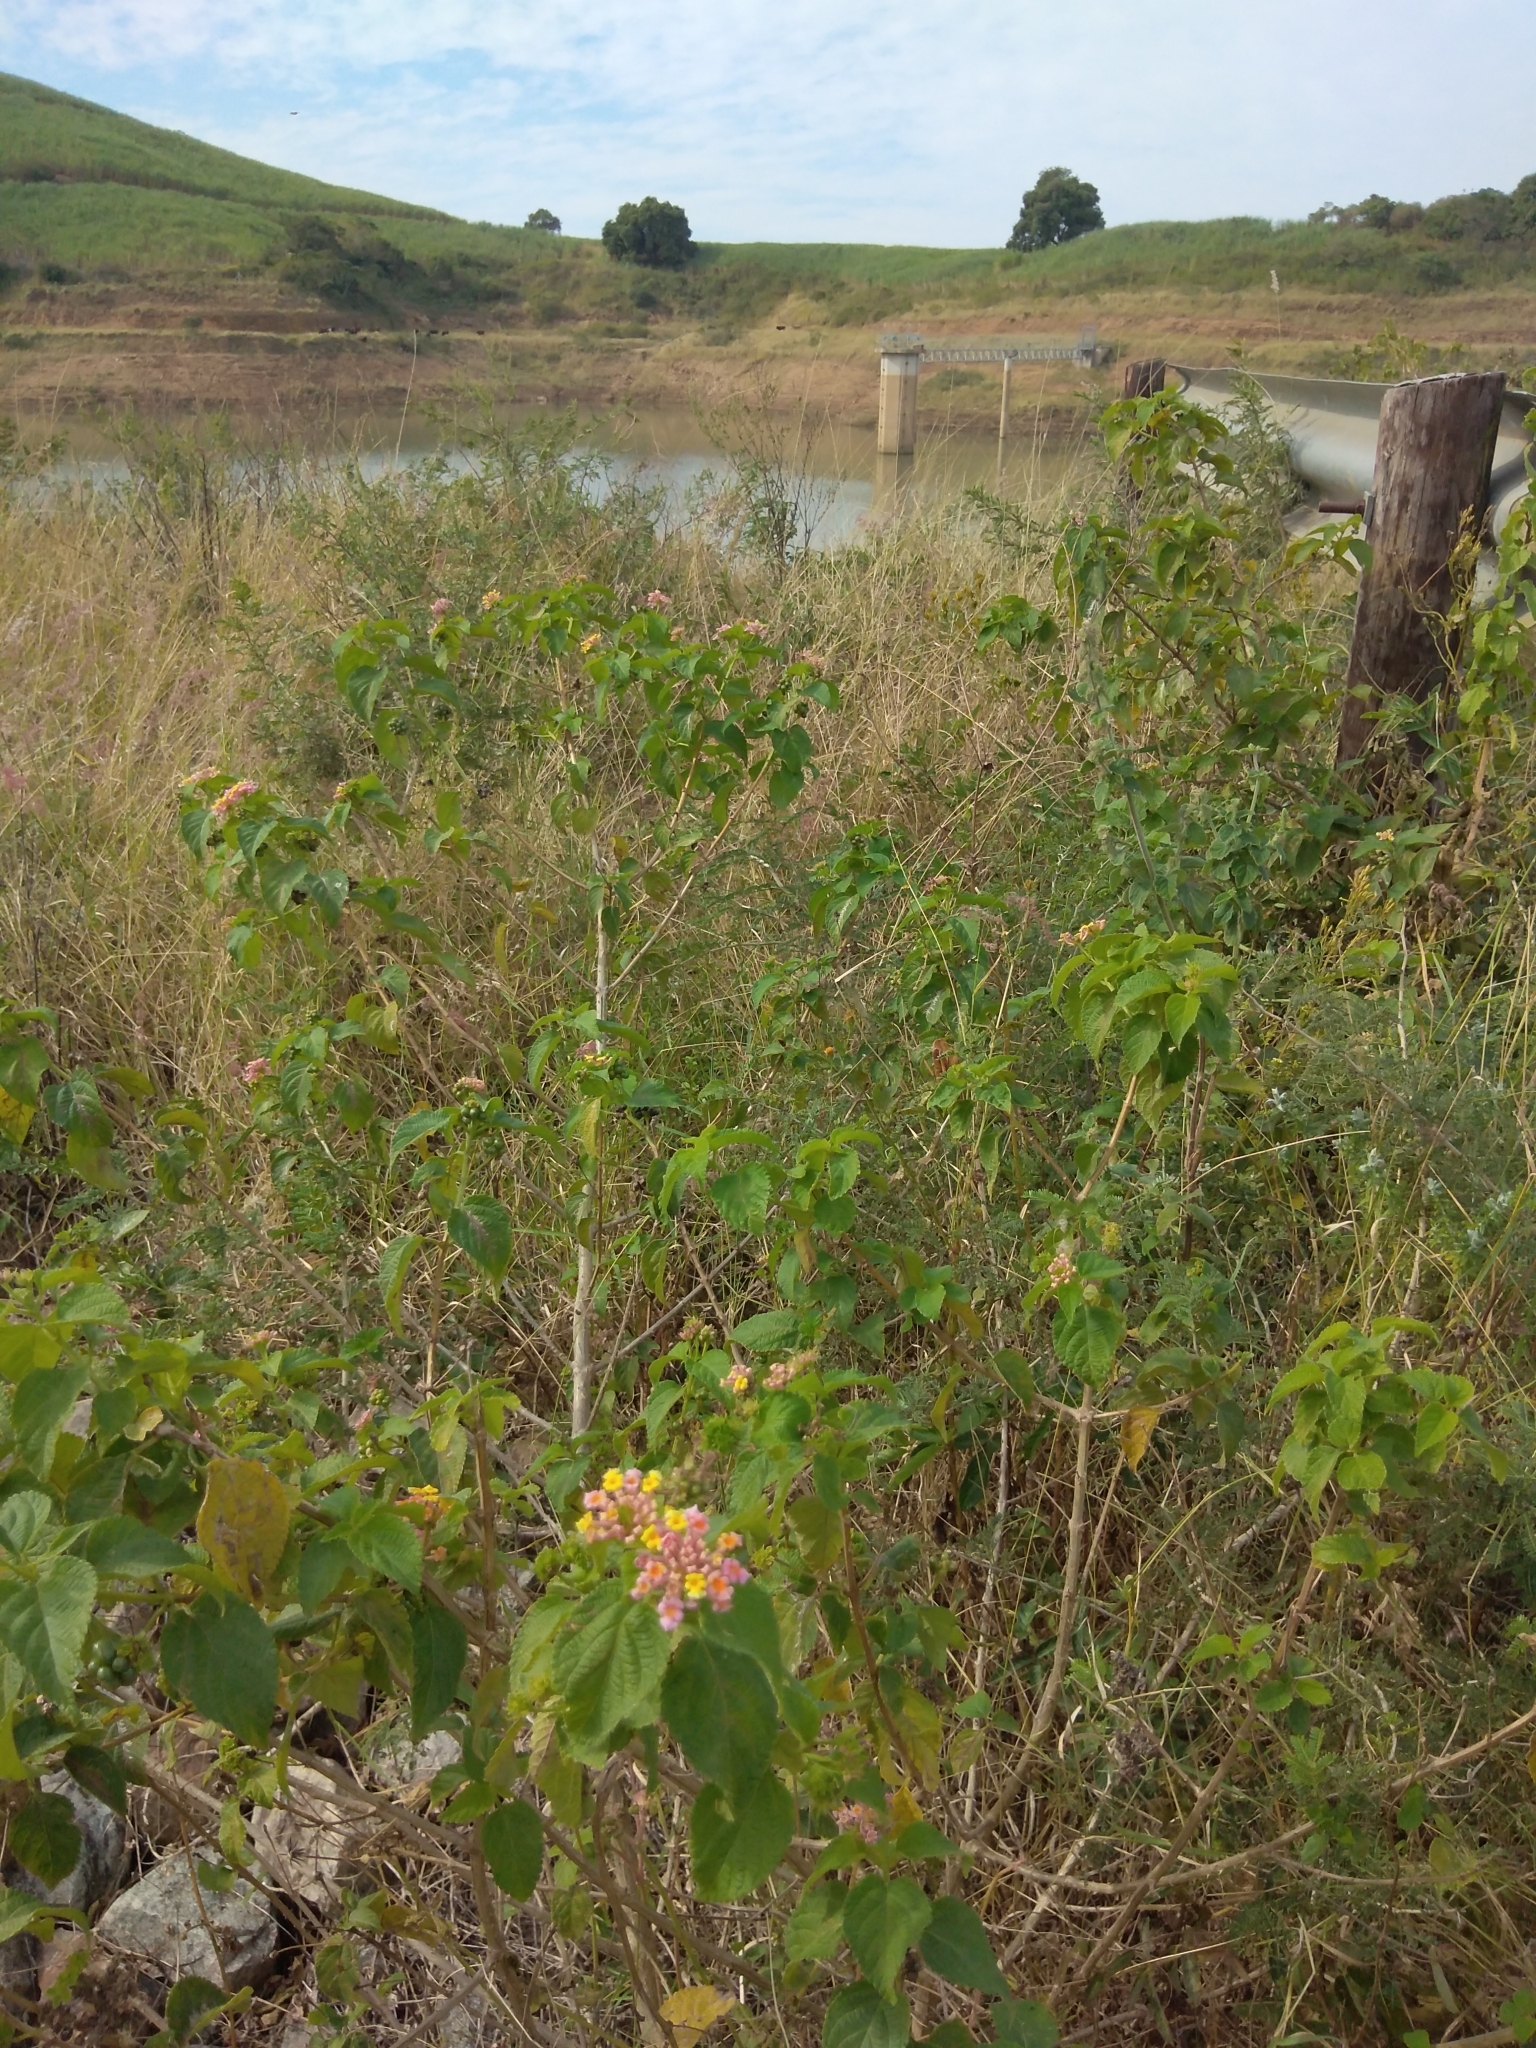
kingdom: Plantae
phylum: Tracheophyta
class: Magnoliopsida
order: Lamiales
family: Verbenaceae
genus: Lantana
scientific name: Lantana camara
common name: Lantana
